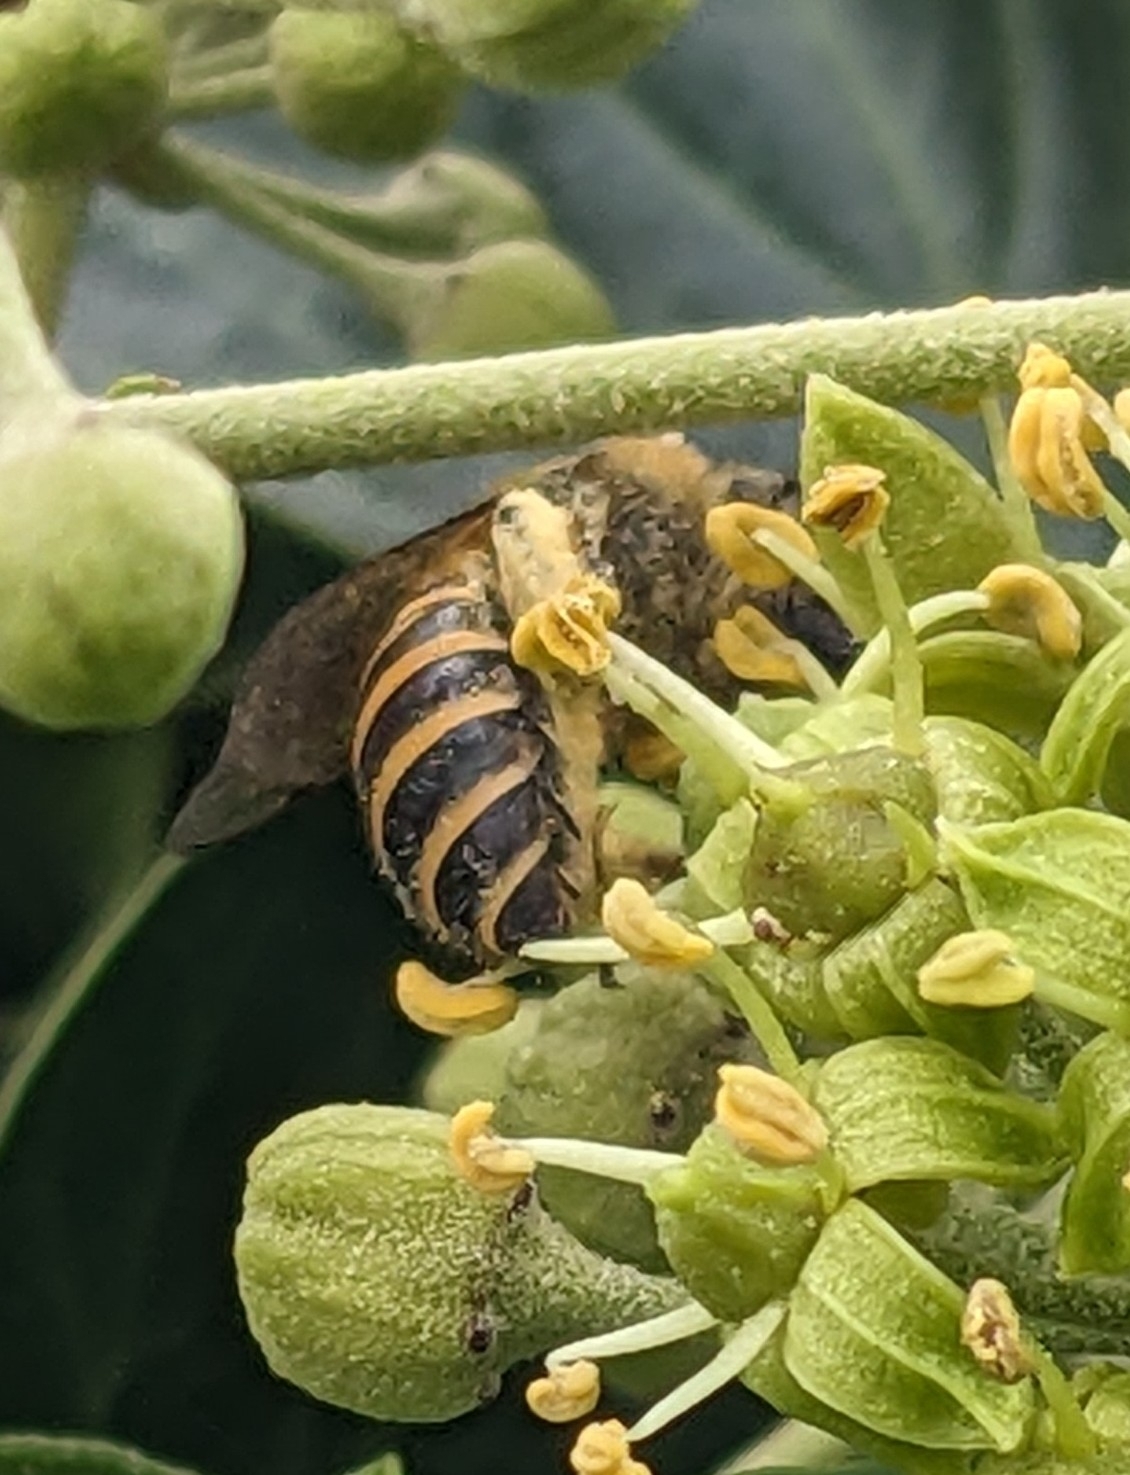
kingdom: Animalia
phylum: Arthropoda
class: Insecta
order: Hymenoptera
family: Colletidae
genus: Colletes
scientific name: Colletes hederae
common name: Ivy bee
